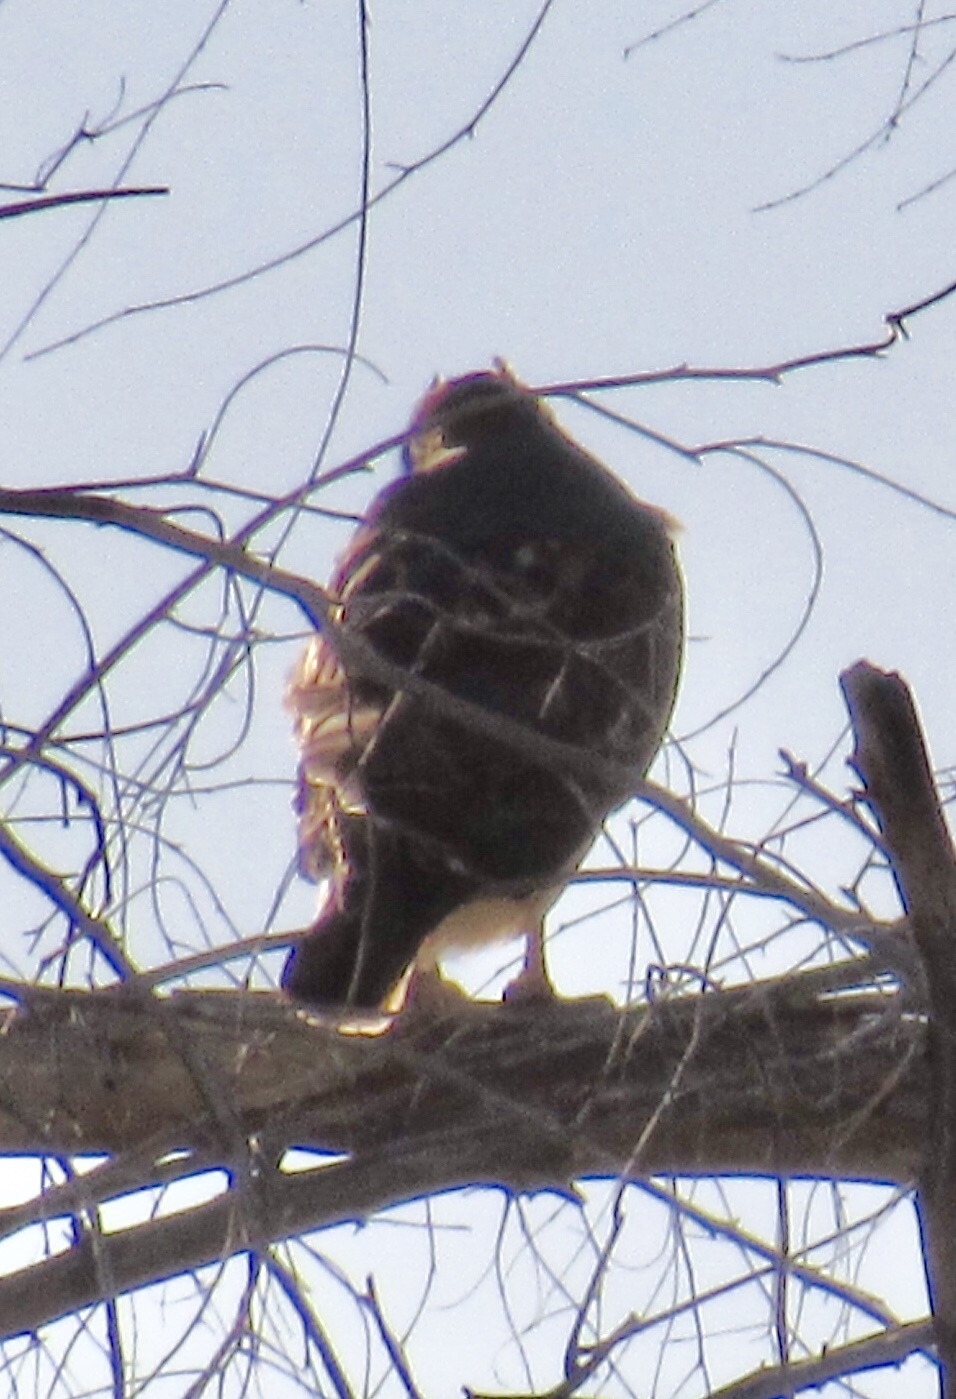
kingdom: Animalia
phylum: Chordata
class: Aves
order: Accipitriformes
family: Accipitridae
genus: Buteo
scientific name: Buteo jamaicensis
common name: Red-tailed hawk
